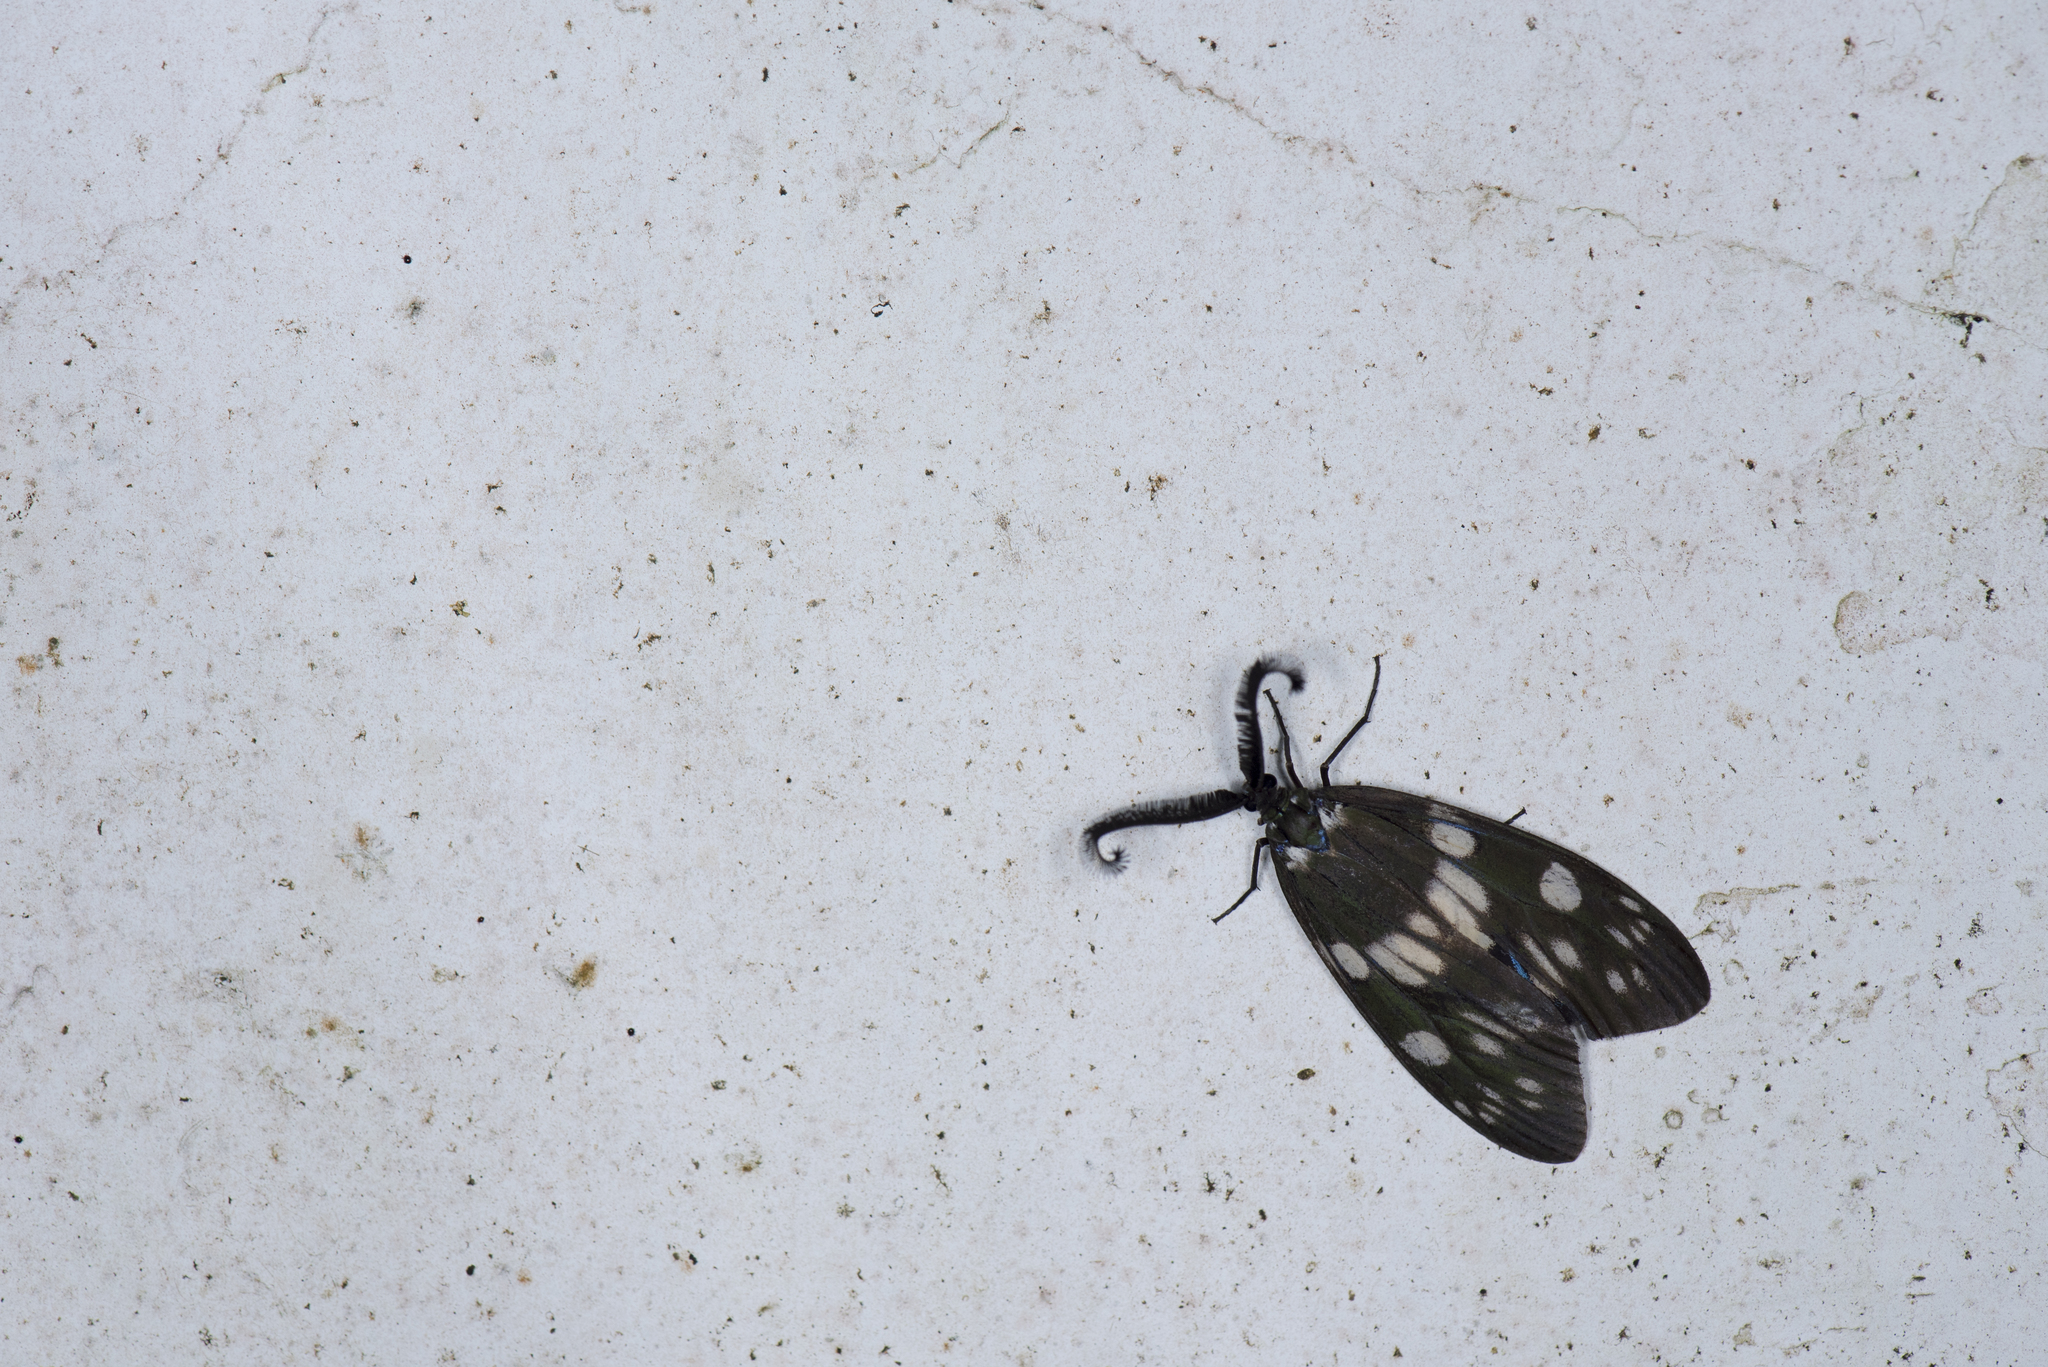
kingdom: Animalia
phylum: Arthropoda
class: Insecta
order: Lepidoptera
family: Zygaenidae
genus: Eterusia
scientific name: Eterusia aedea
